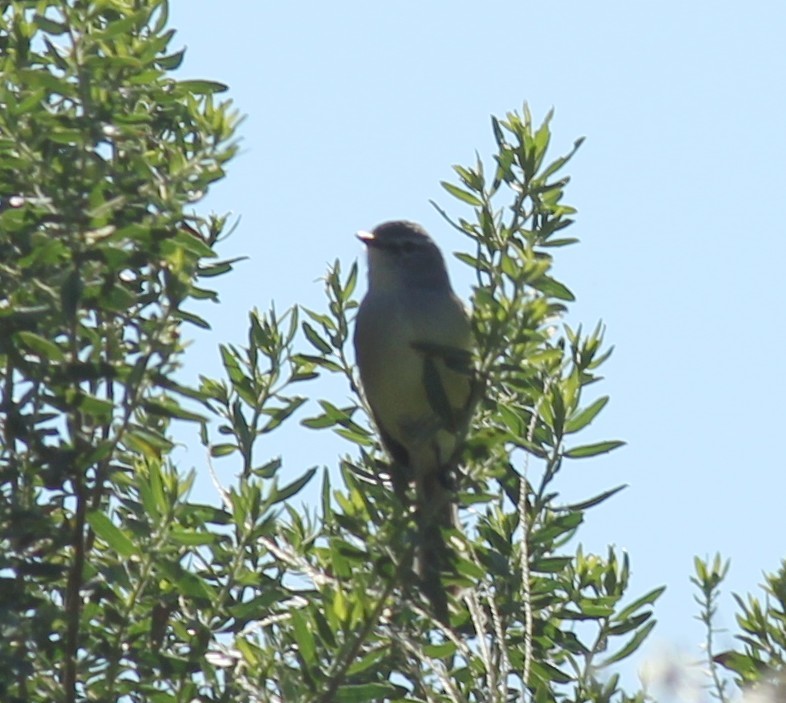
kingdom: Animalia
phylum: Chordata
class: Aves
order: Passeriformes
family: Tyrannidae
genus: Serpophaga
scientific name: Serpophaga subcristata
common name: White-crested tyrannulet
